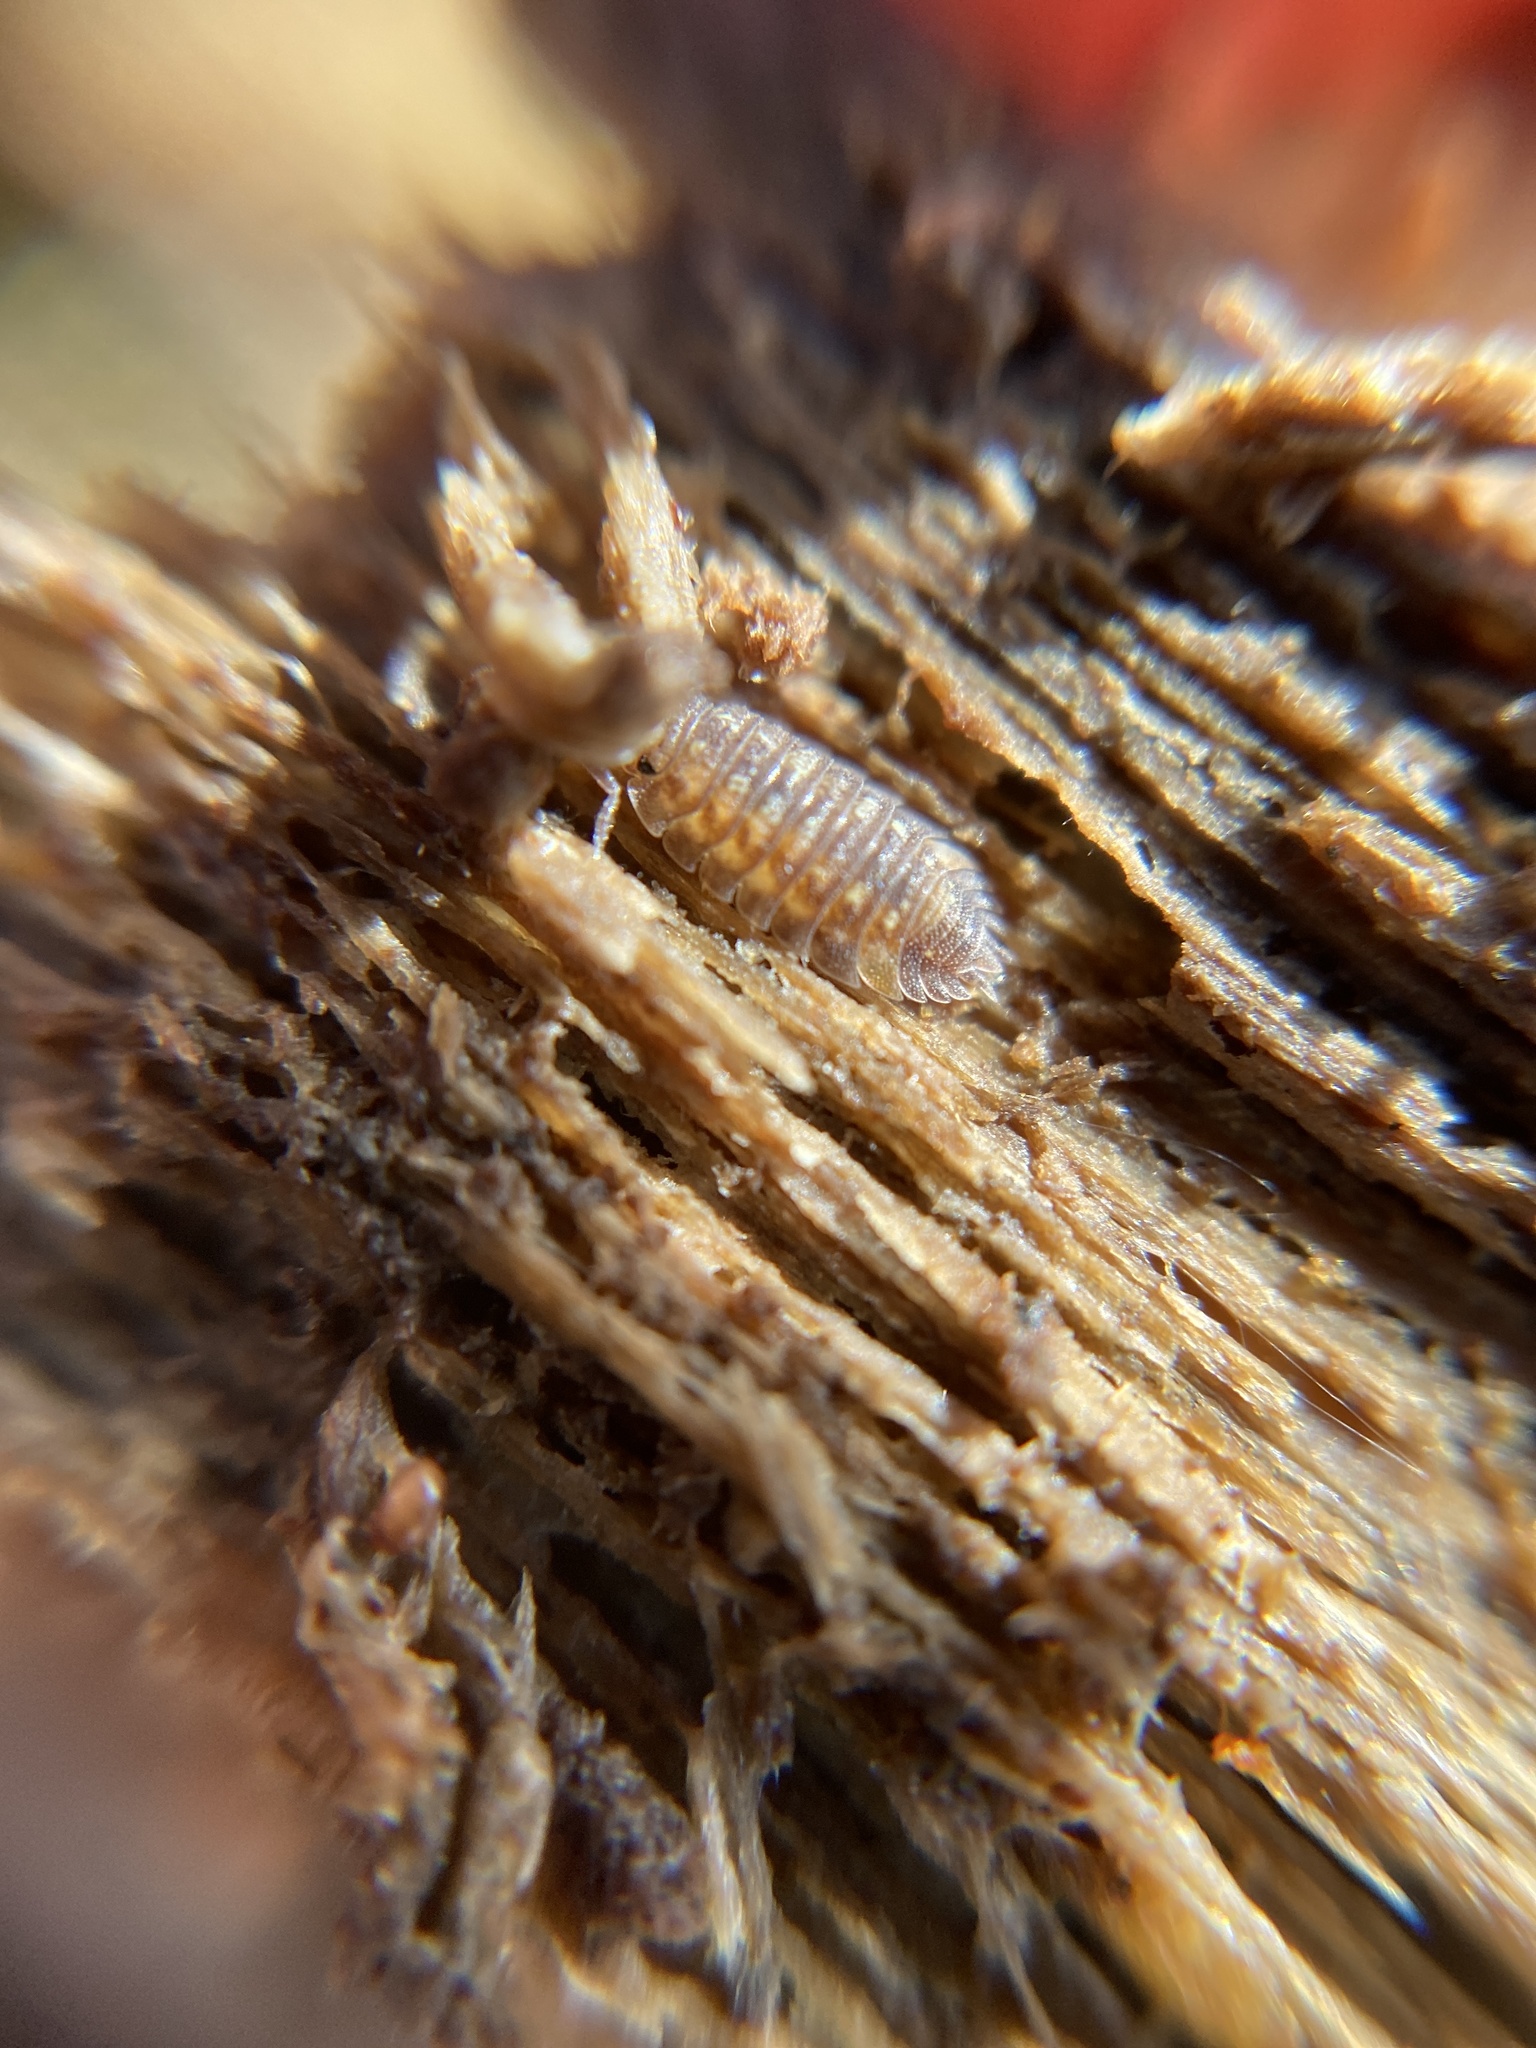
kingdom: Animalia
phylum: Arthropoda
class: Malacostraca
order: Isopoda
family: Oniscidae
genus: Oniscus
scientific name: Oniscus asellus
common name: Common shiny woodlouse
